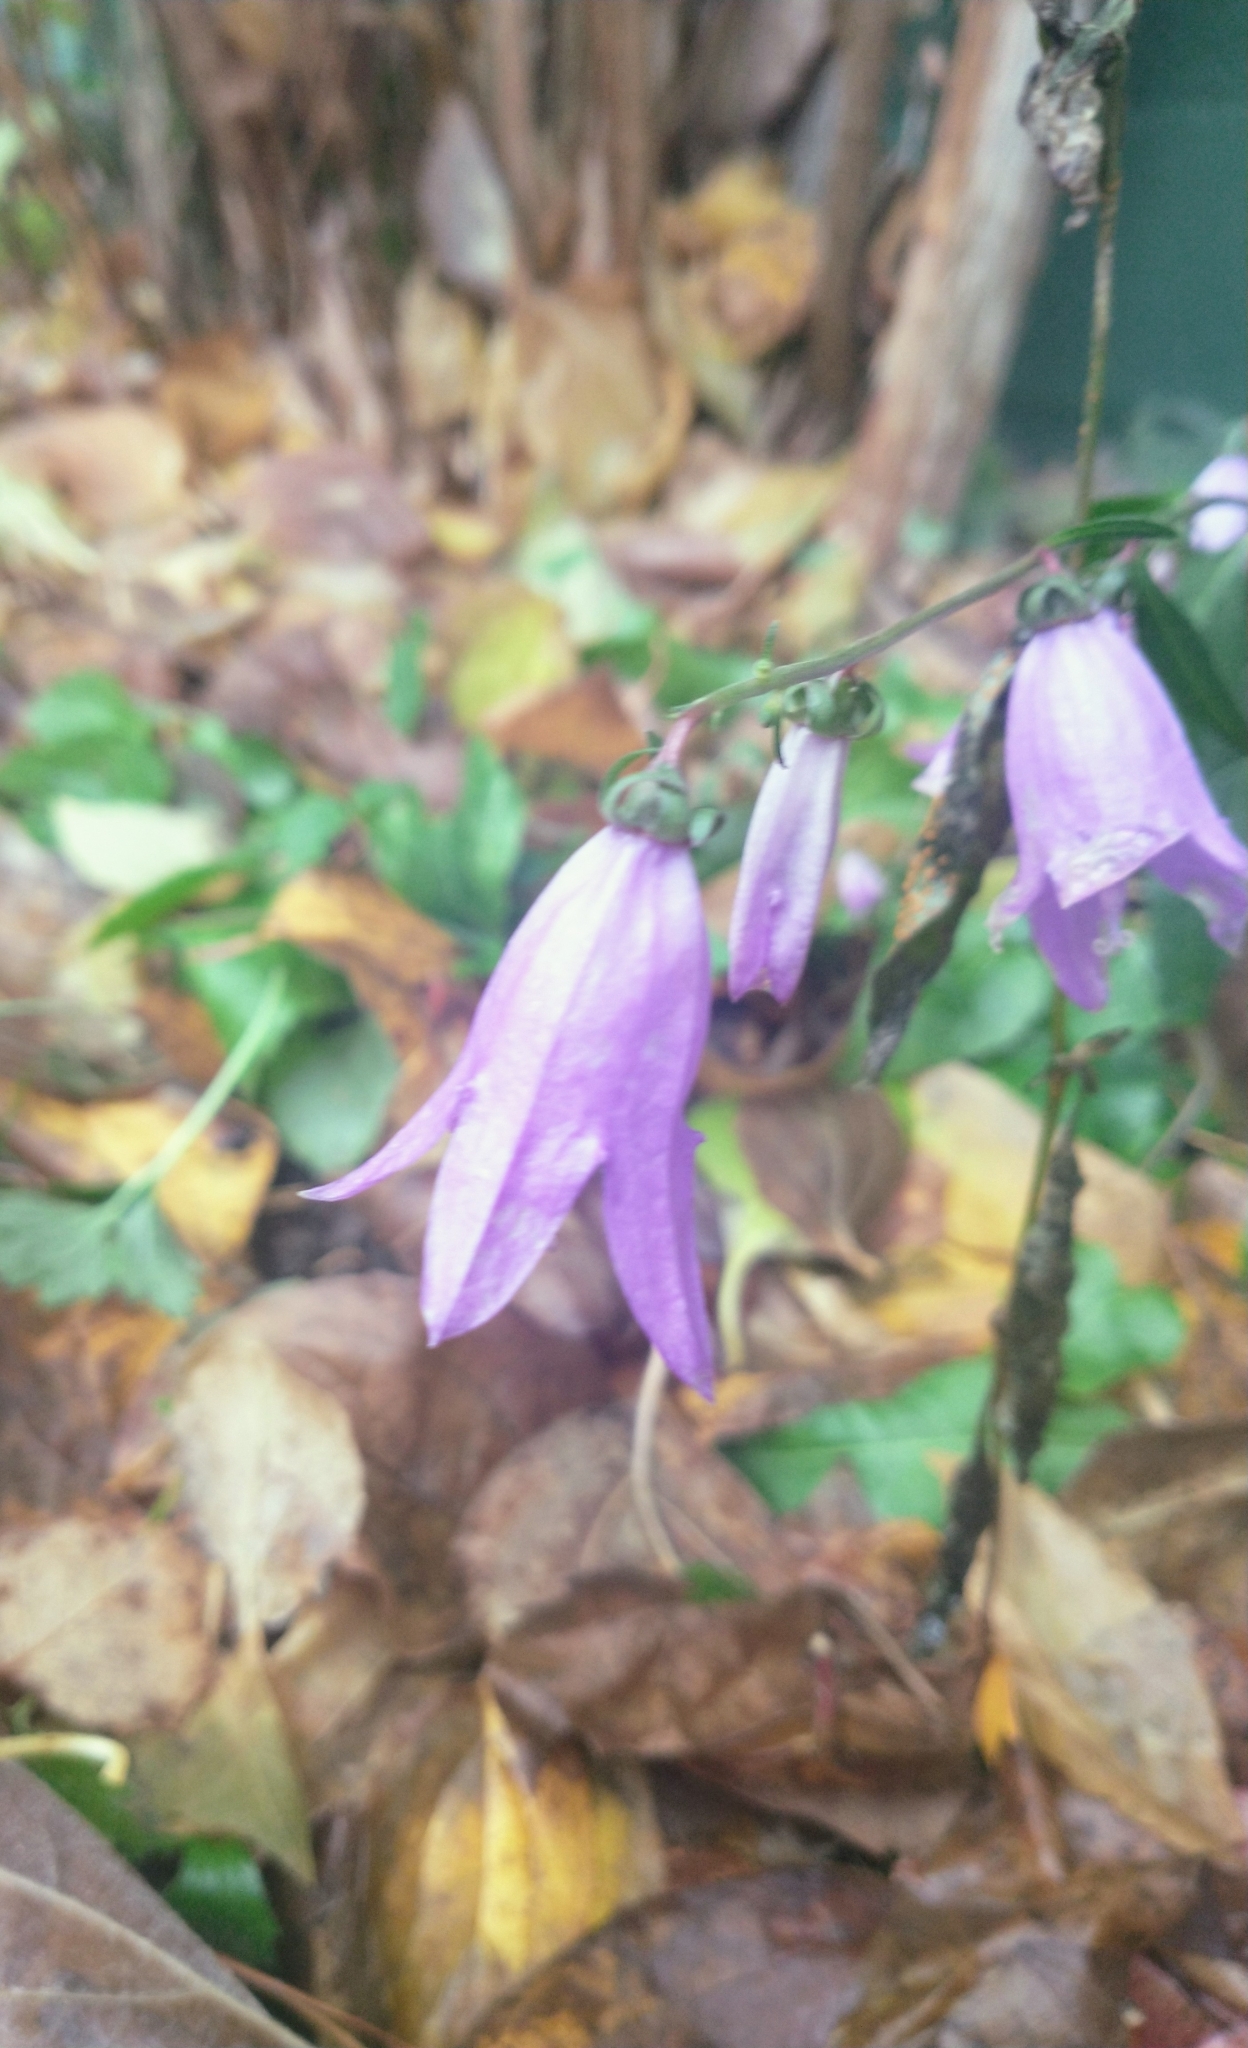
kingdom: Plantae
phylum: Tracheophyta
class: Magnoliopsida
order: Asterales
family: Campanulaceae
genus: Campanula
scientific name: Campanula rapunculoides
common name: Creeping bellflower
